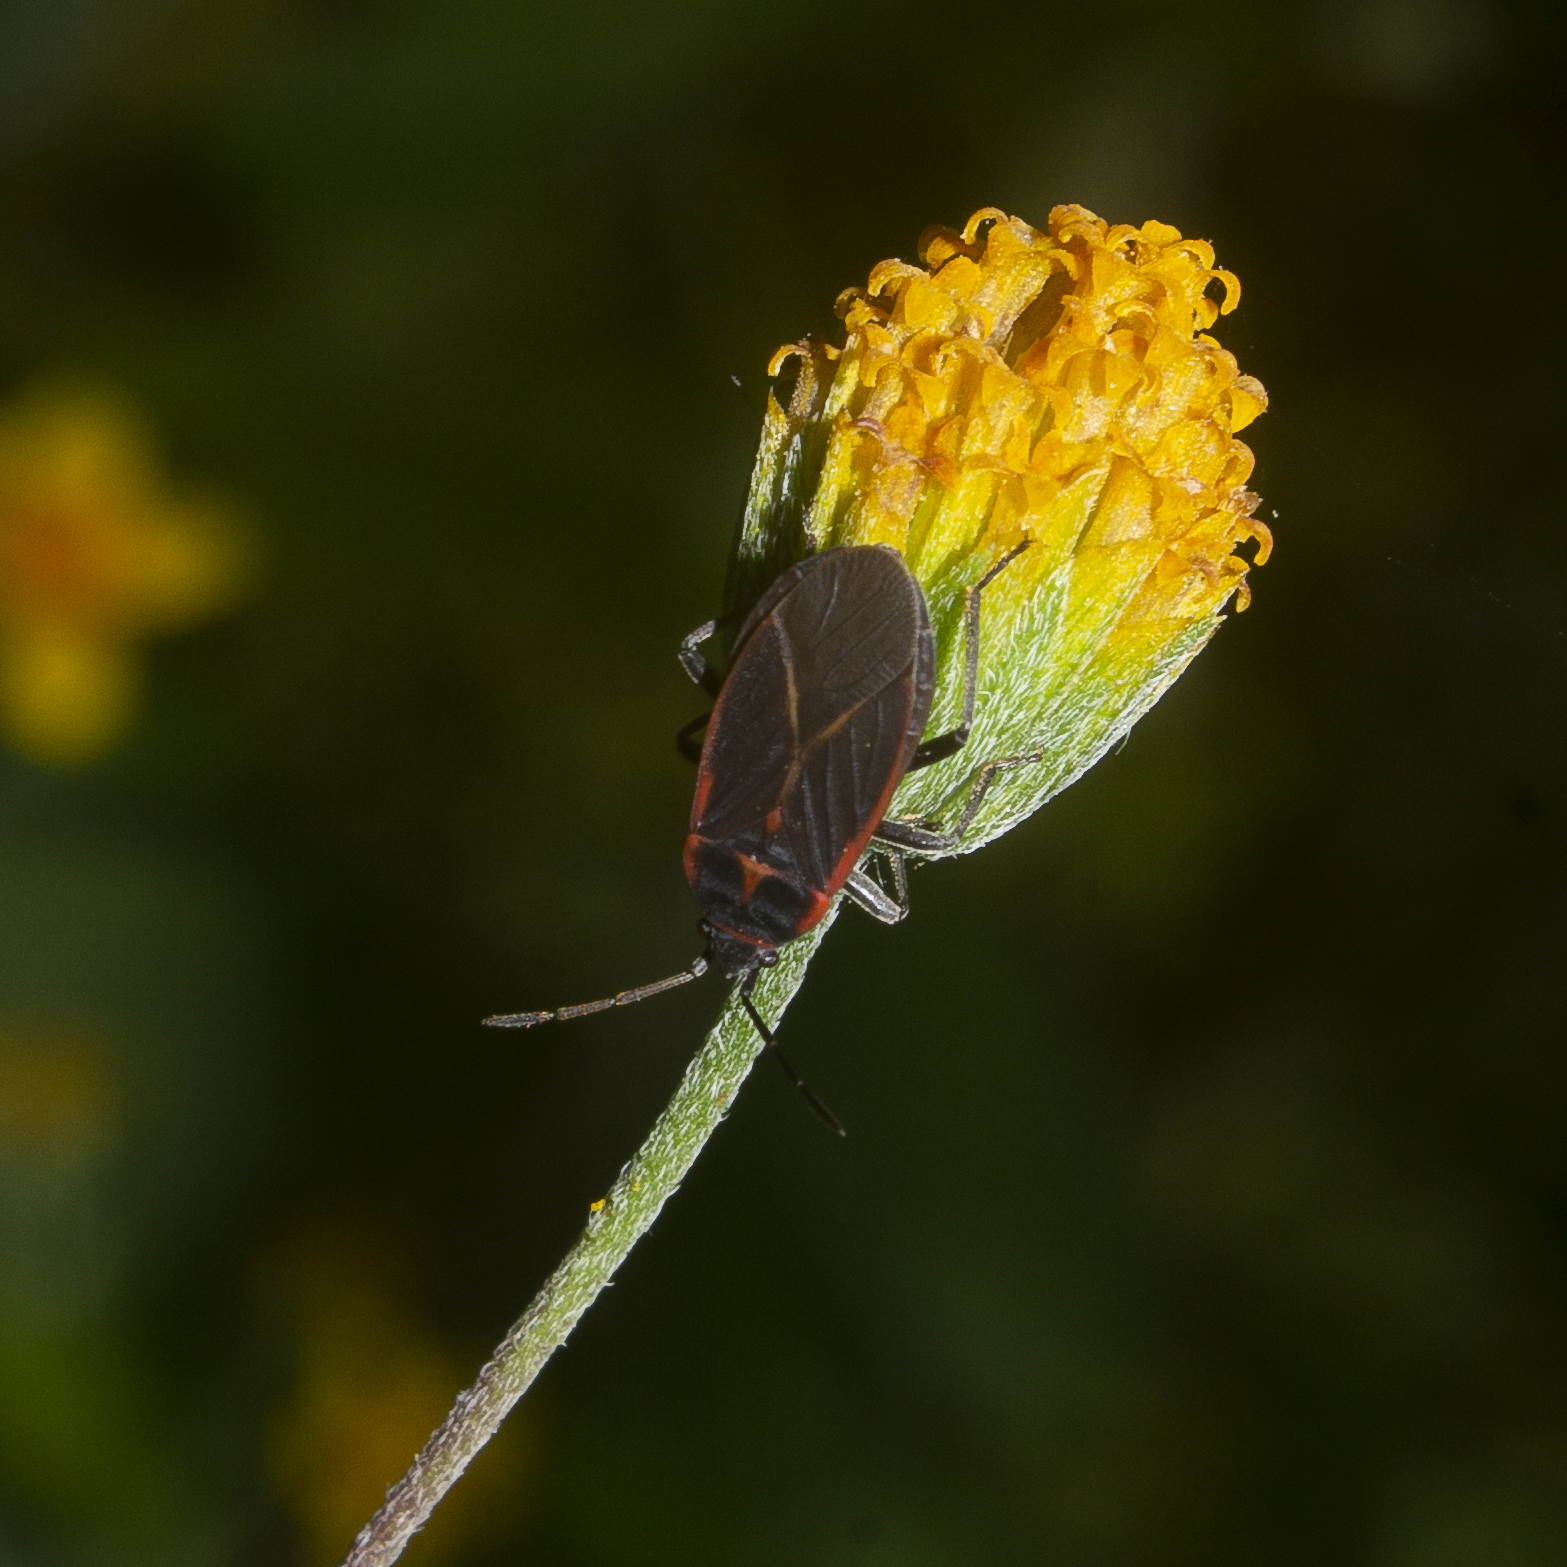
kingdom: Animalia
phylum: Arthropoda
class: Insecta
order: Hemiptera
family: Lygaeidae
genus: Melacoryphus
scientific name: Melacoryphus circumlitus
